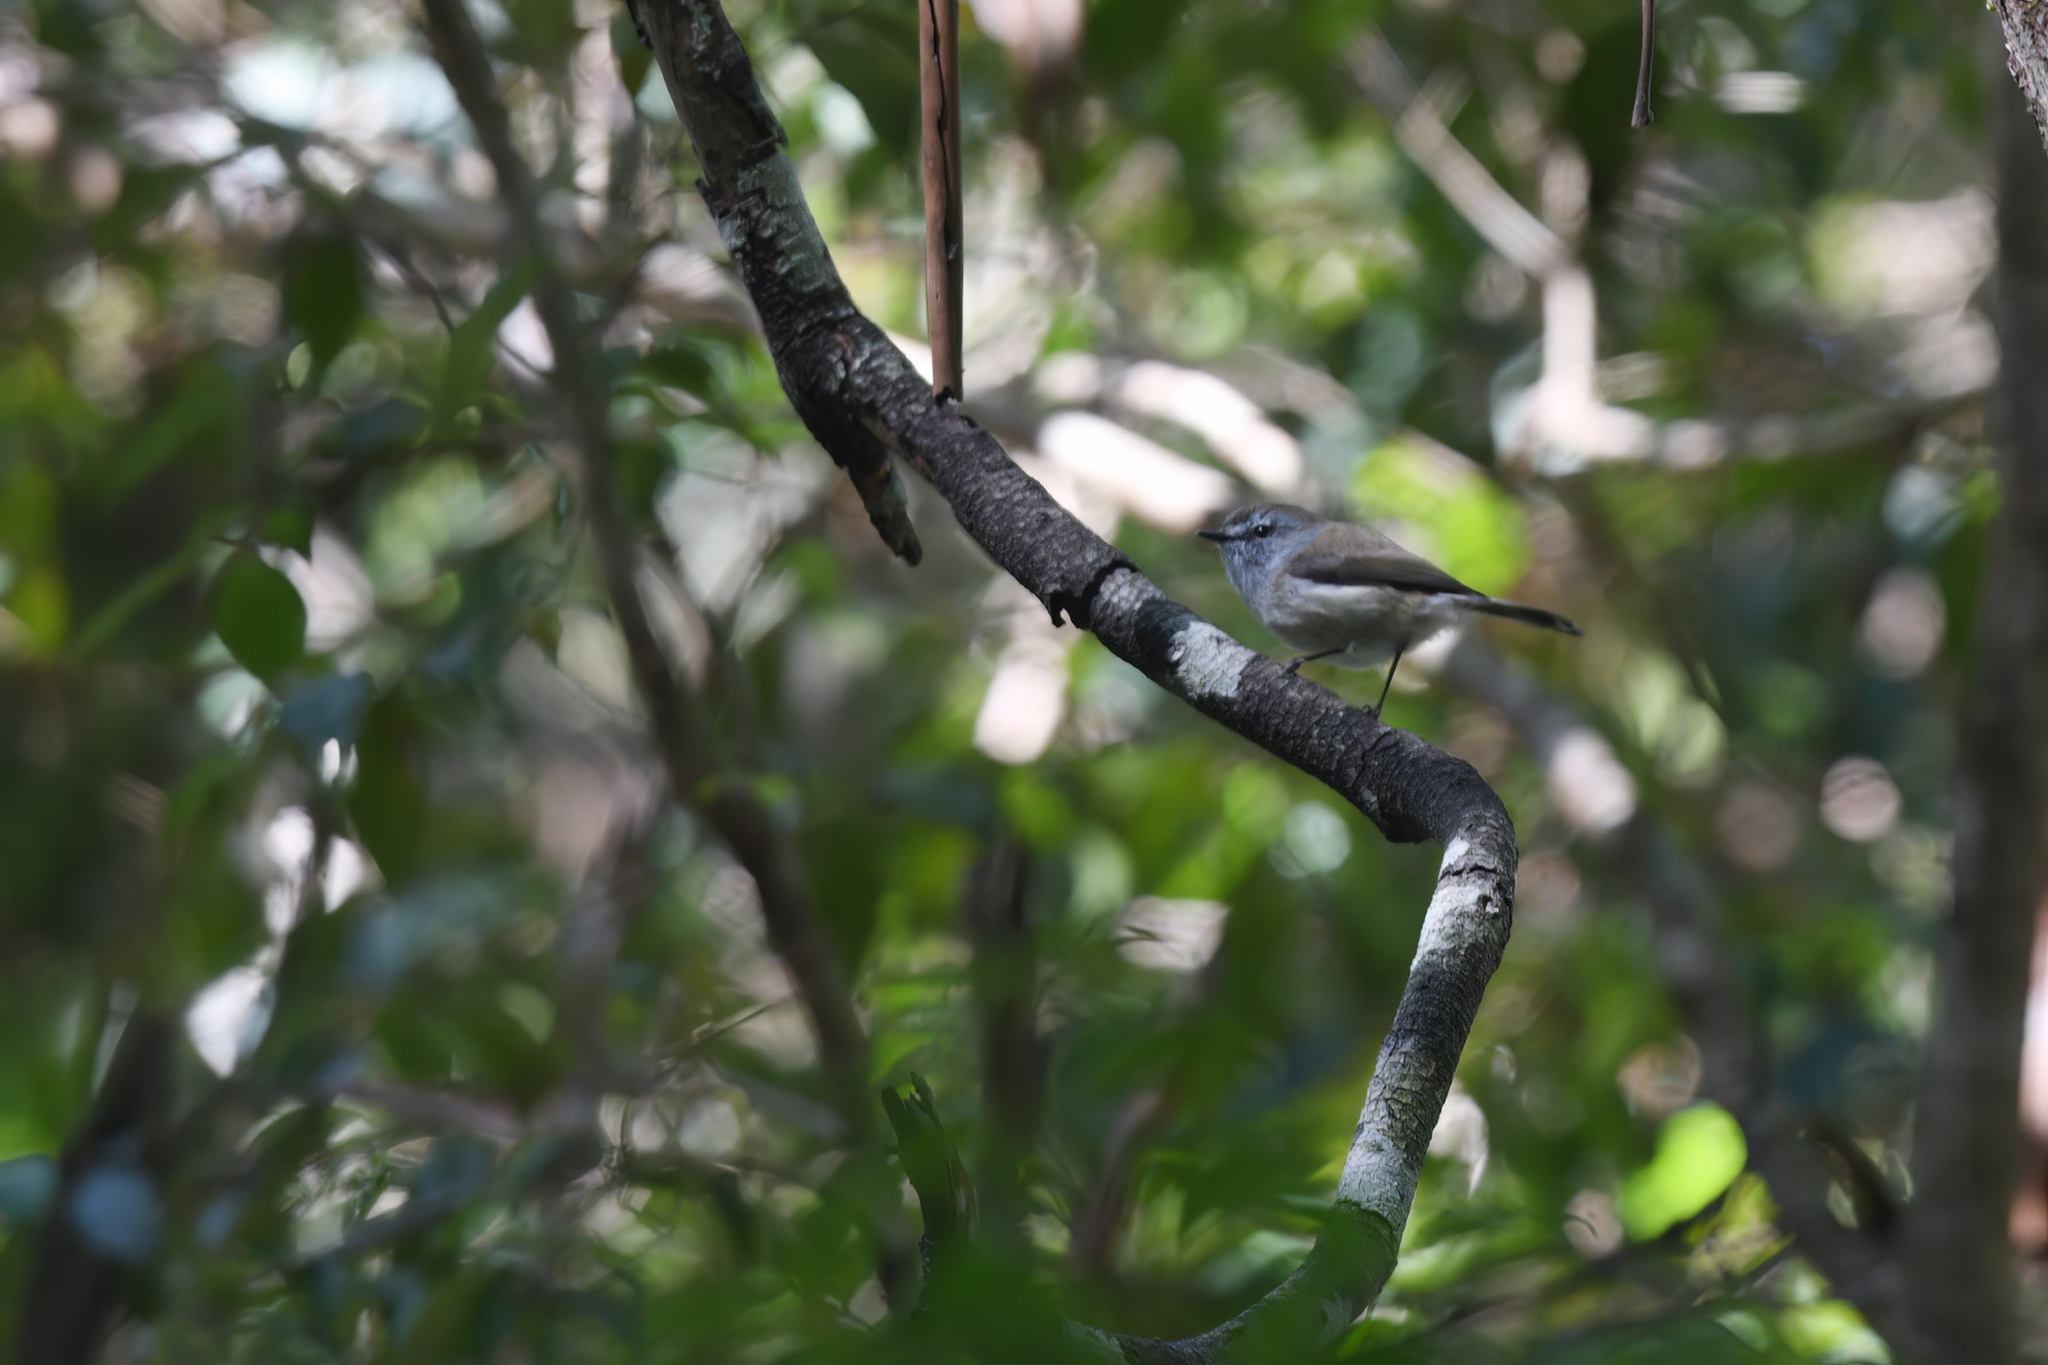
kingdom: Animalia
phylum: Chordata
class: Aves
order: Passeriformes
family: Acanthizidae
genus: Gerygone
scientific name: Gerygone mouki
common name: Brown gerygone
